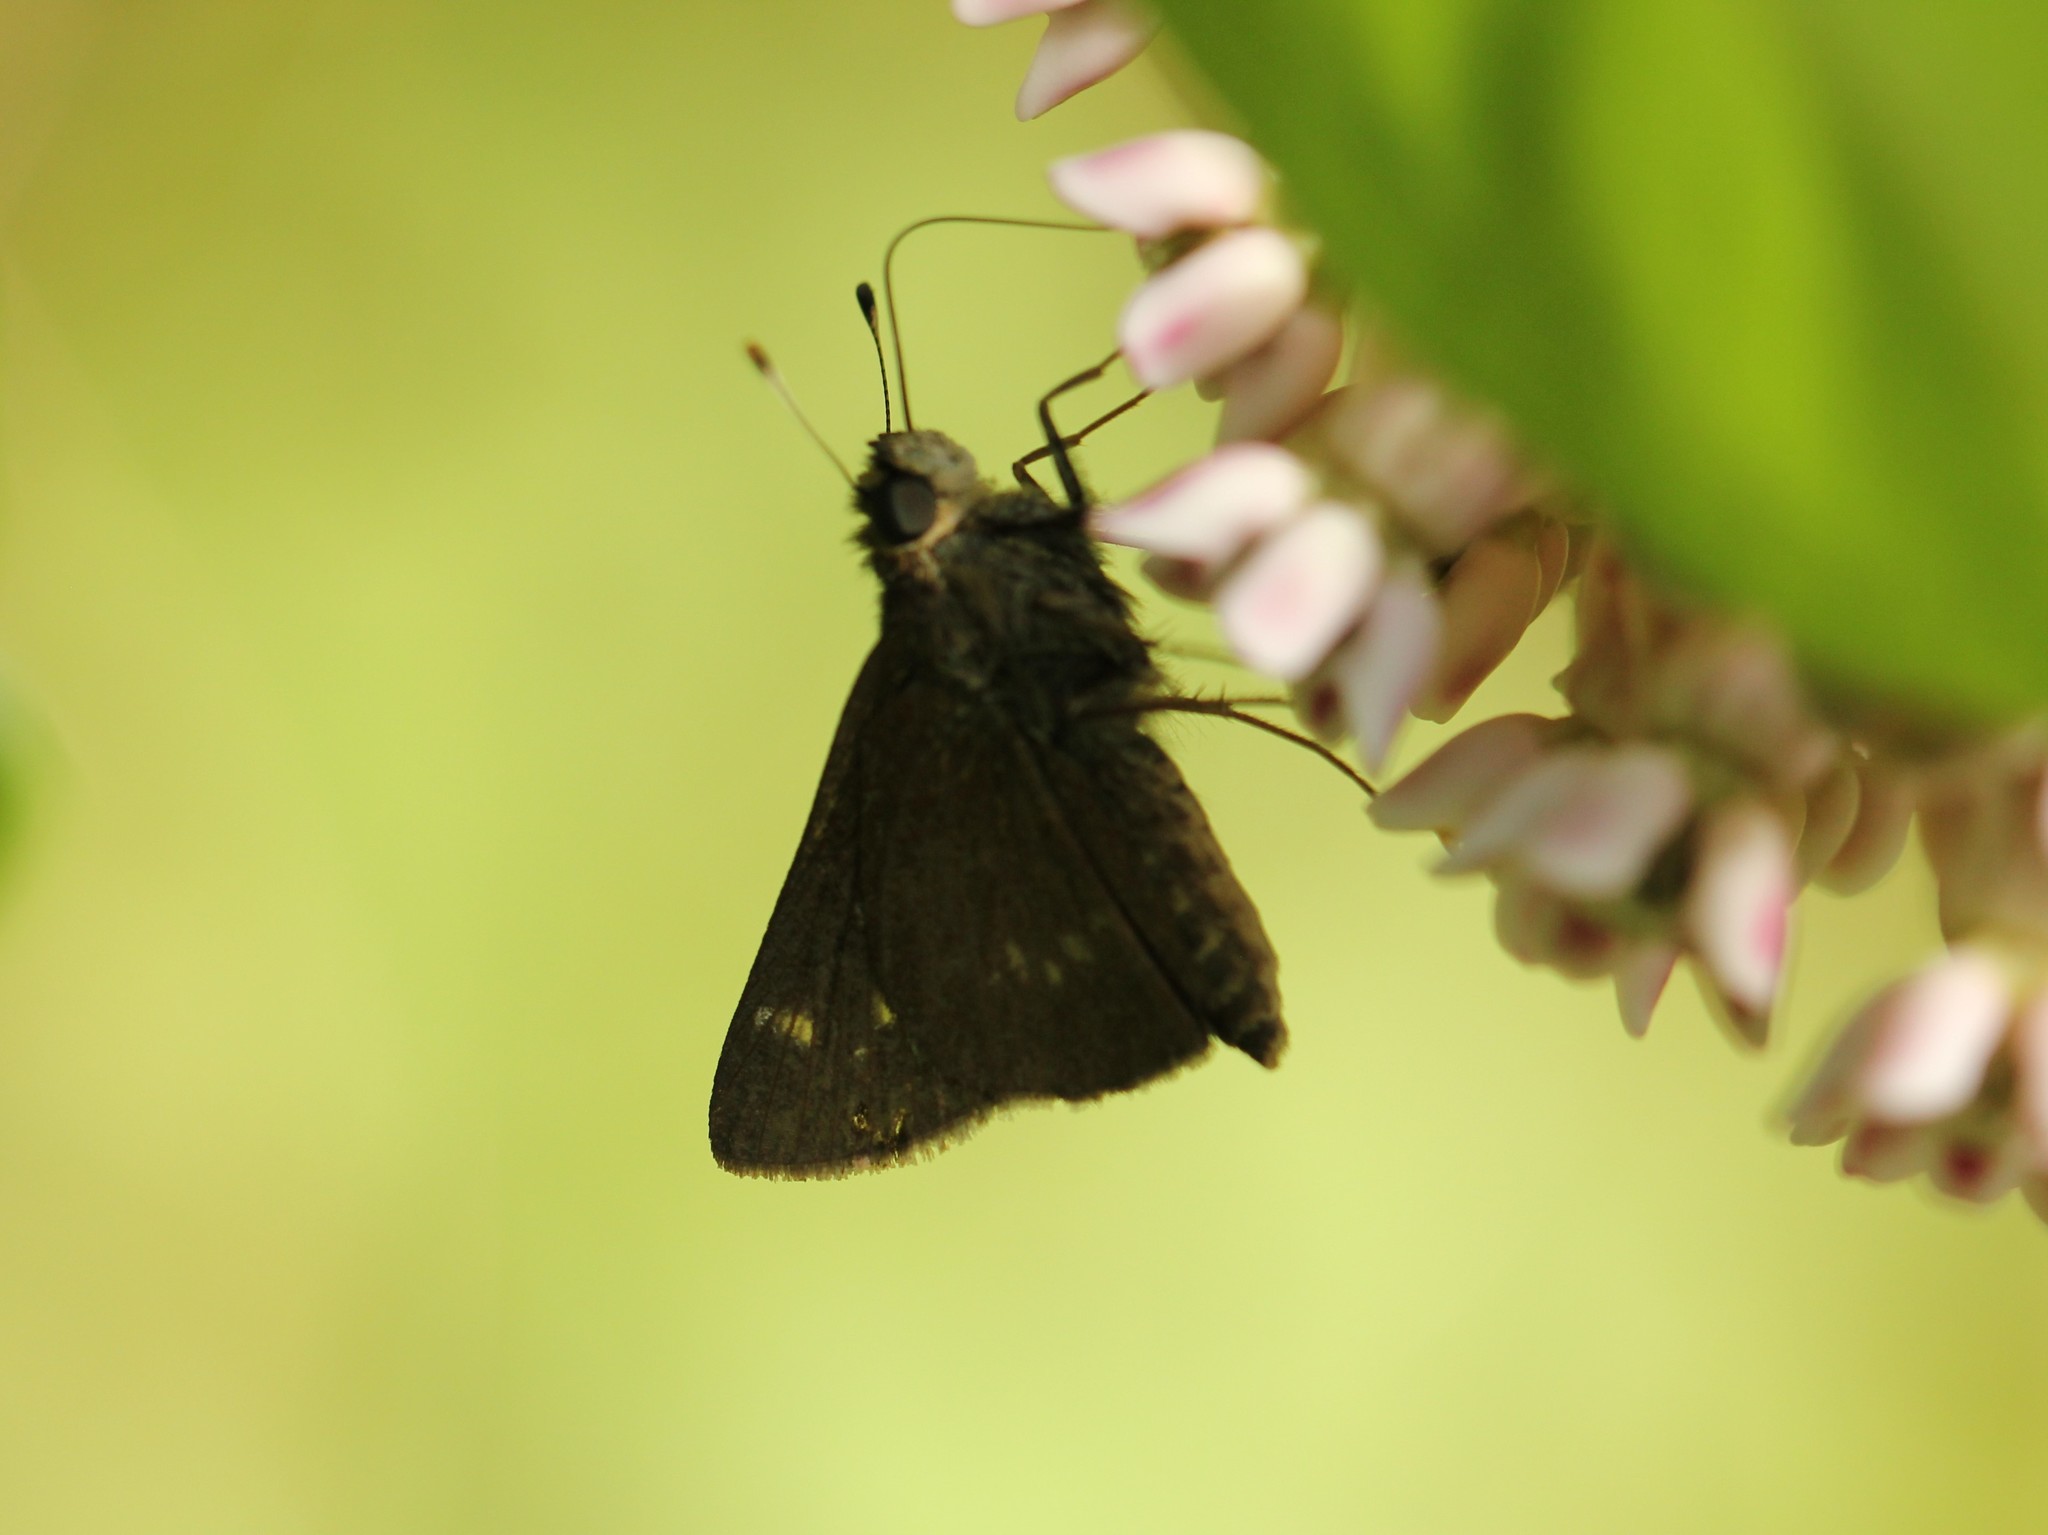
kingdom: Animalia
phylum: Arthropoda
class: Insecta
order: Lepidoptera
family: Hesperiidae
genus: Vernia
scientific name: Vernia verna
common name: Little glassywing
